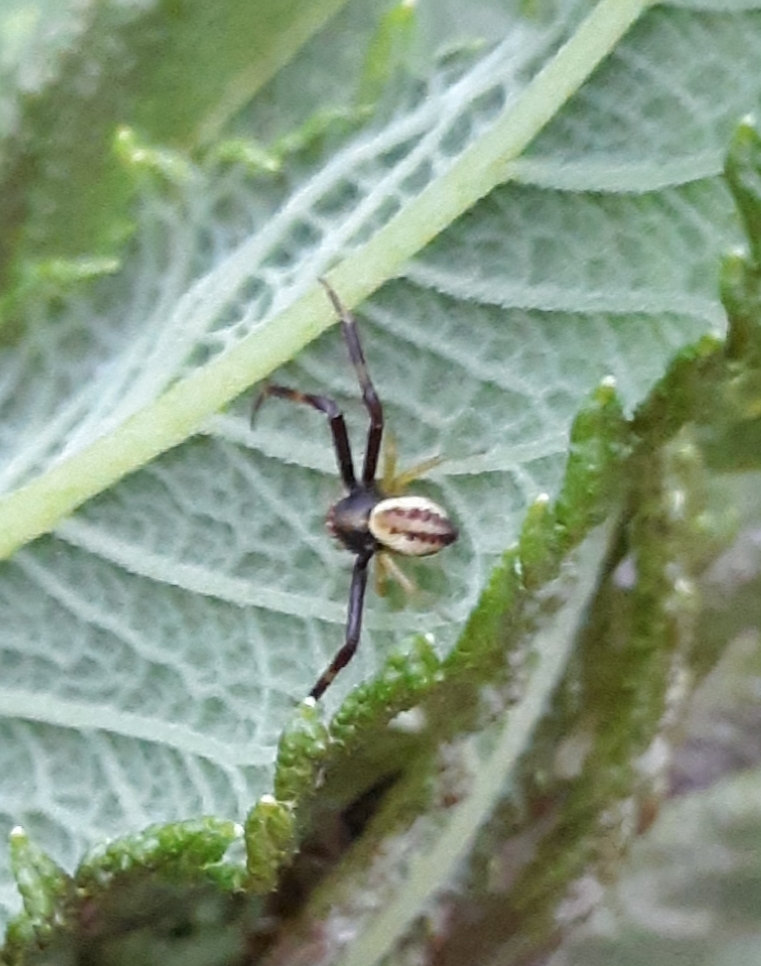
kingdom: Animalia
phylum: Arthropoda
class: Arachnida
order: Araneae
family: Thomisidae
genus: Misumena
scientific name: Misumena vatia
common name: Goldenrod crab spider
